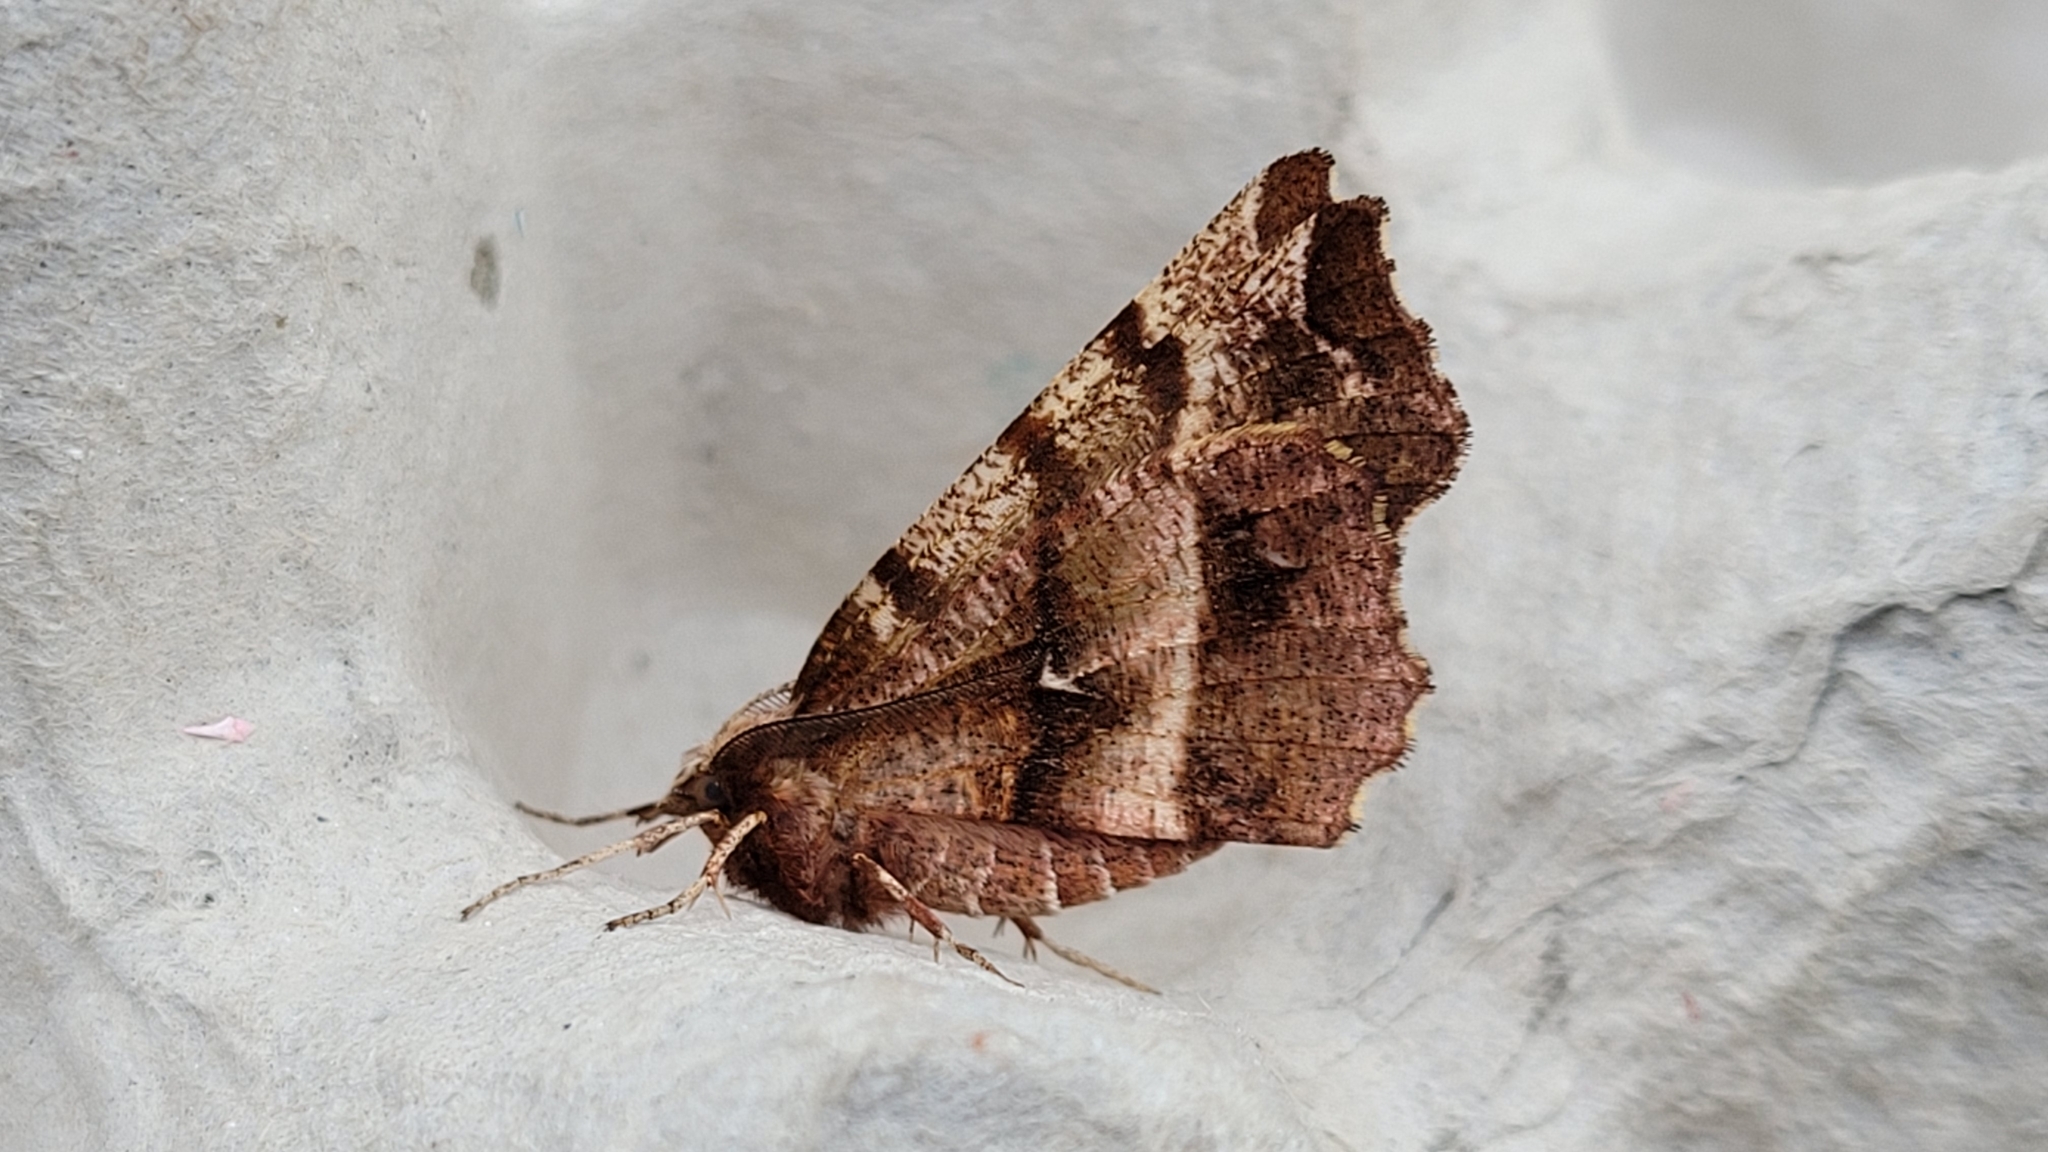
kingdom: Animalia
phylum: Arthropoda
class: Insecta
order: Lepidoptera
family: Geometridae
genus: Selenia
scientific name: Selenia dentaria
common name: Early thorn
